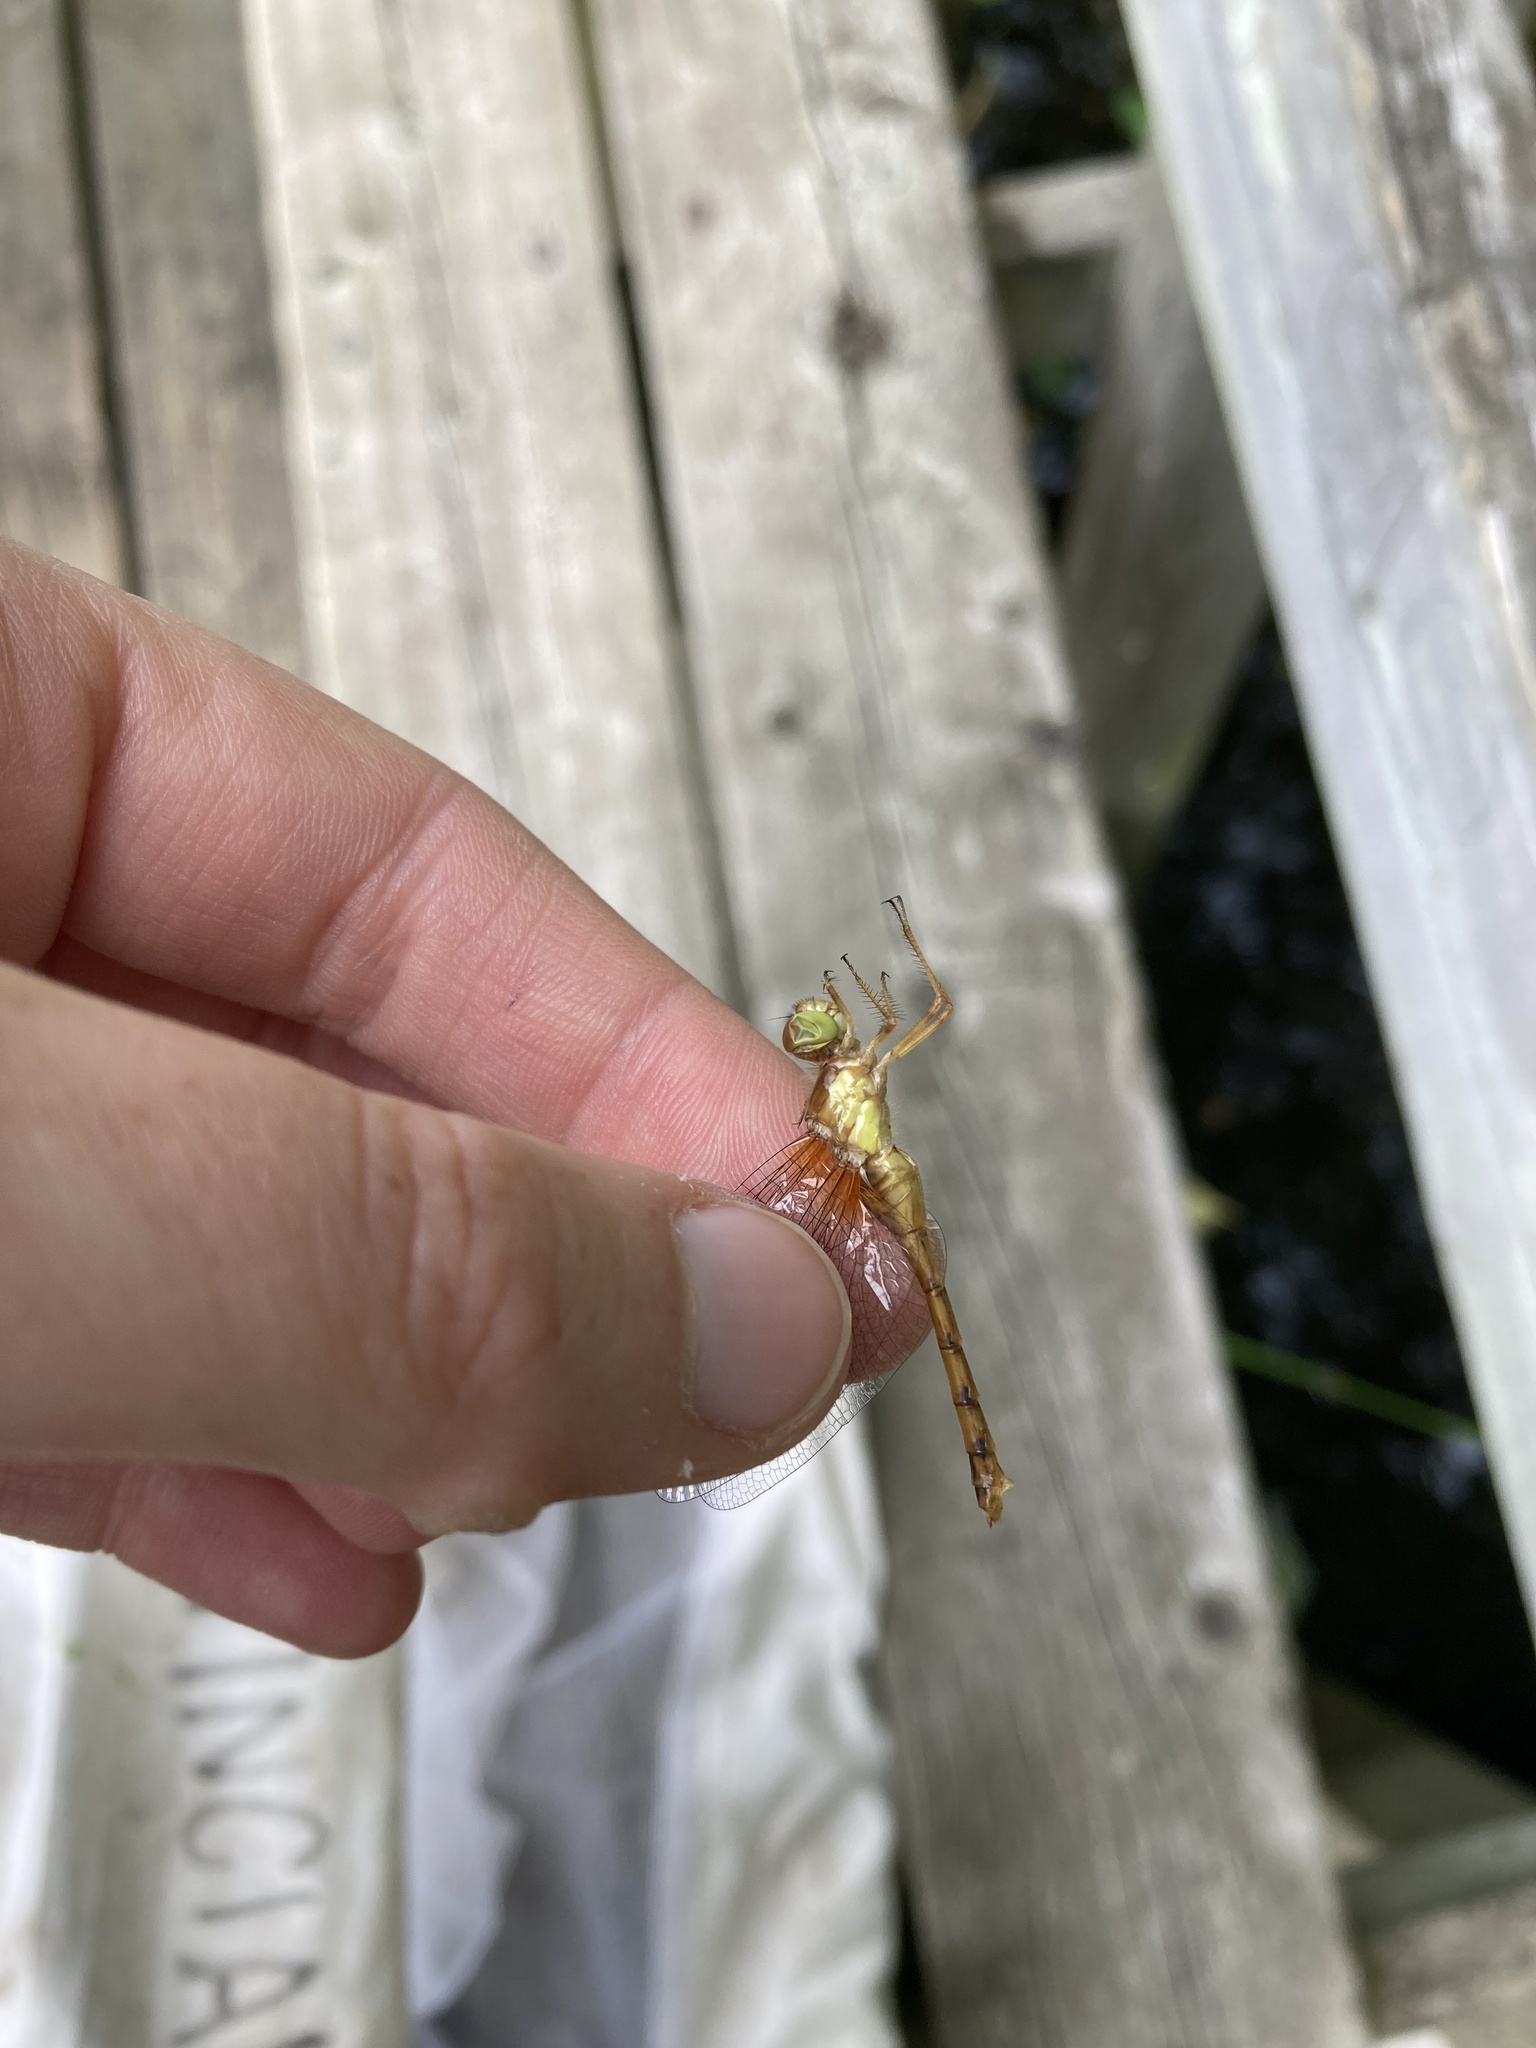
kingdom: Animalia
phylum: Arthropoda
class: Insecta
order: Odonata
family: Libellulidae
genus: Sympetrum
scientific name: Sympetrum vicinum
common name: Autumn meadowhawk
